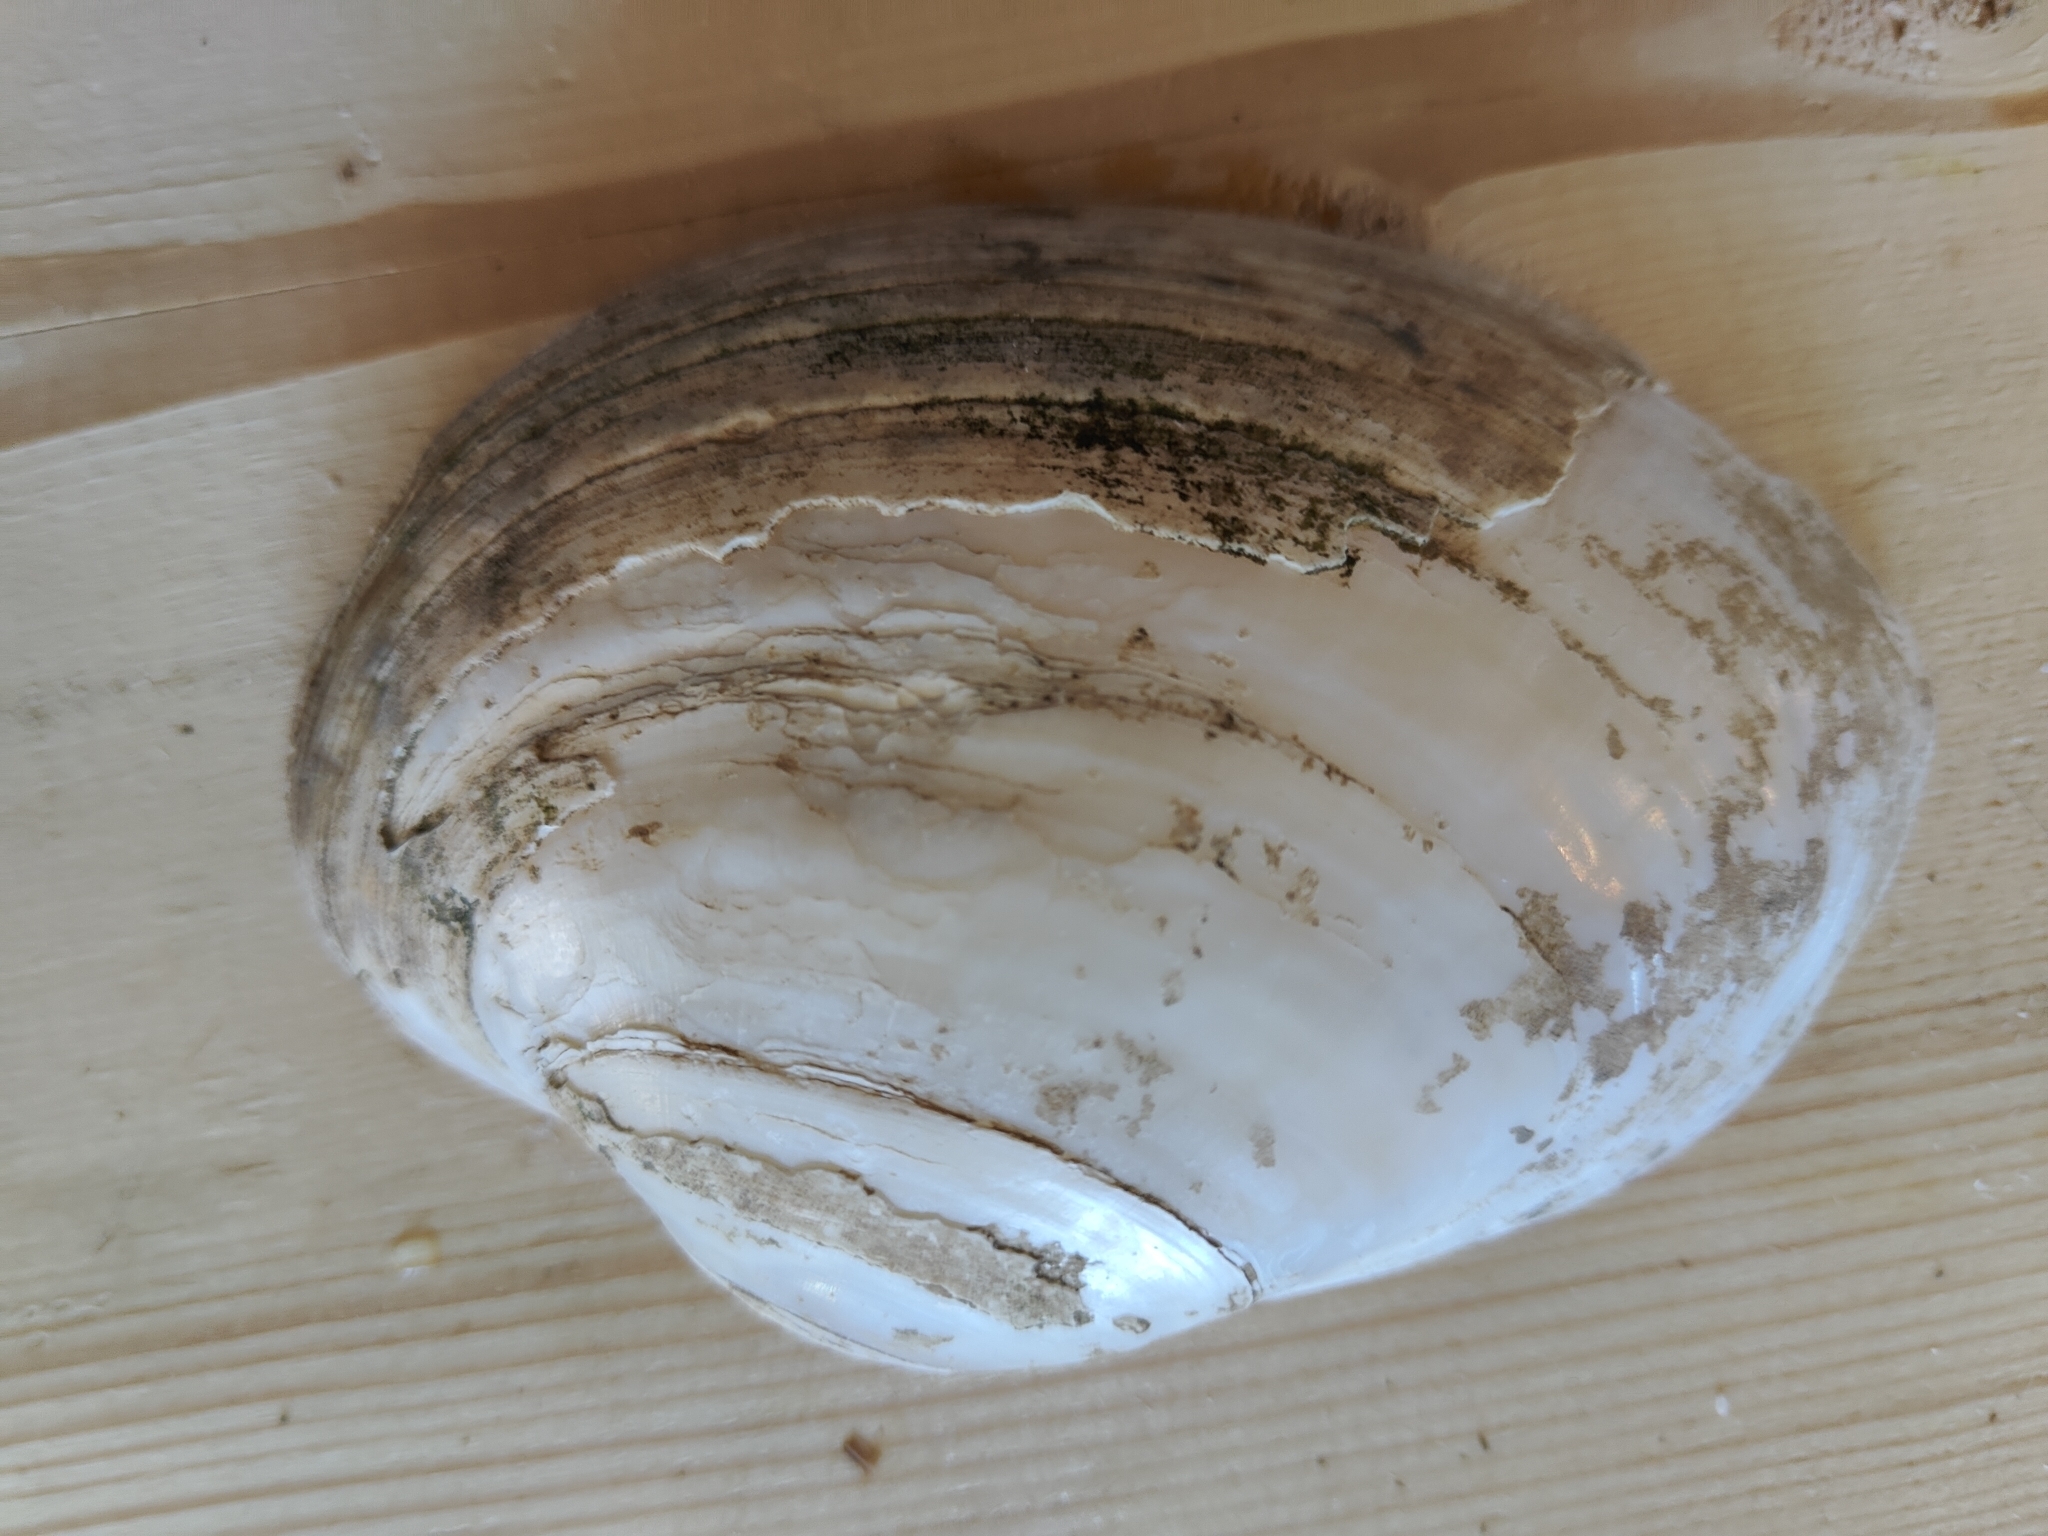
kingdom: Animalia
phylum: Mollusca
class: Bivalvia
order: Unionida
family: Unionidae
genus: Lampsilis
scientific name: Lampsilis cardium
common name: Plain pocketbook
